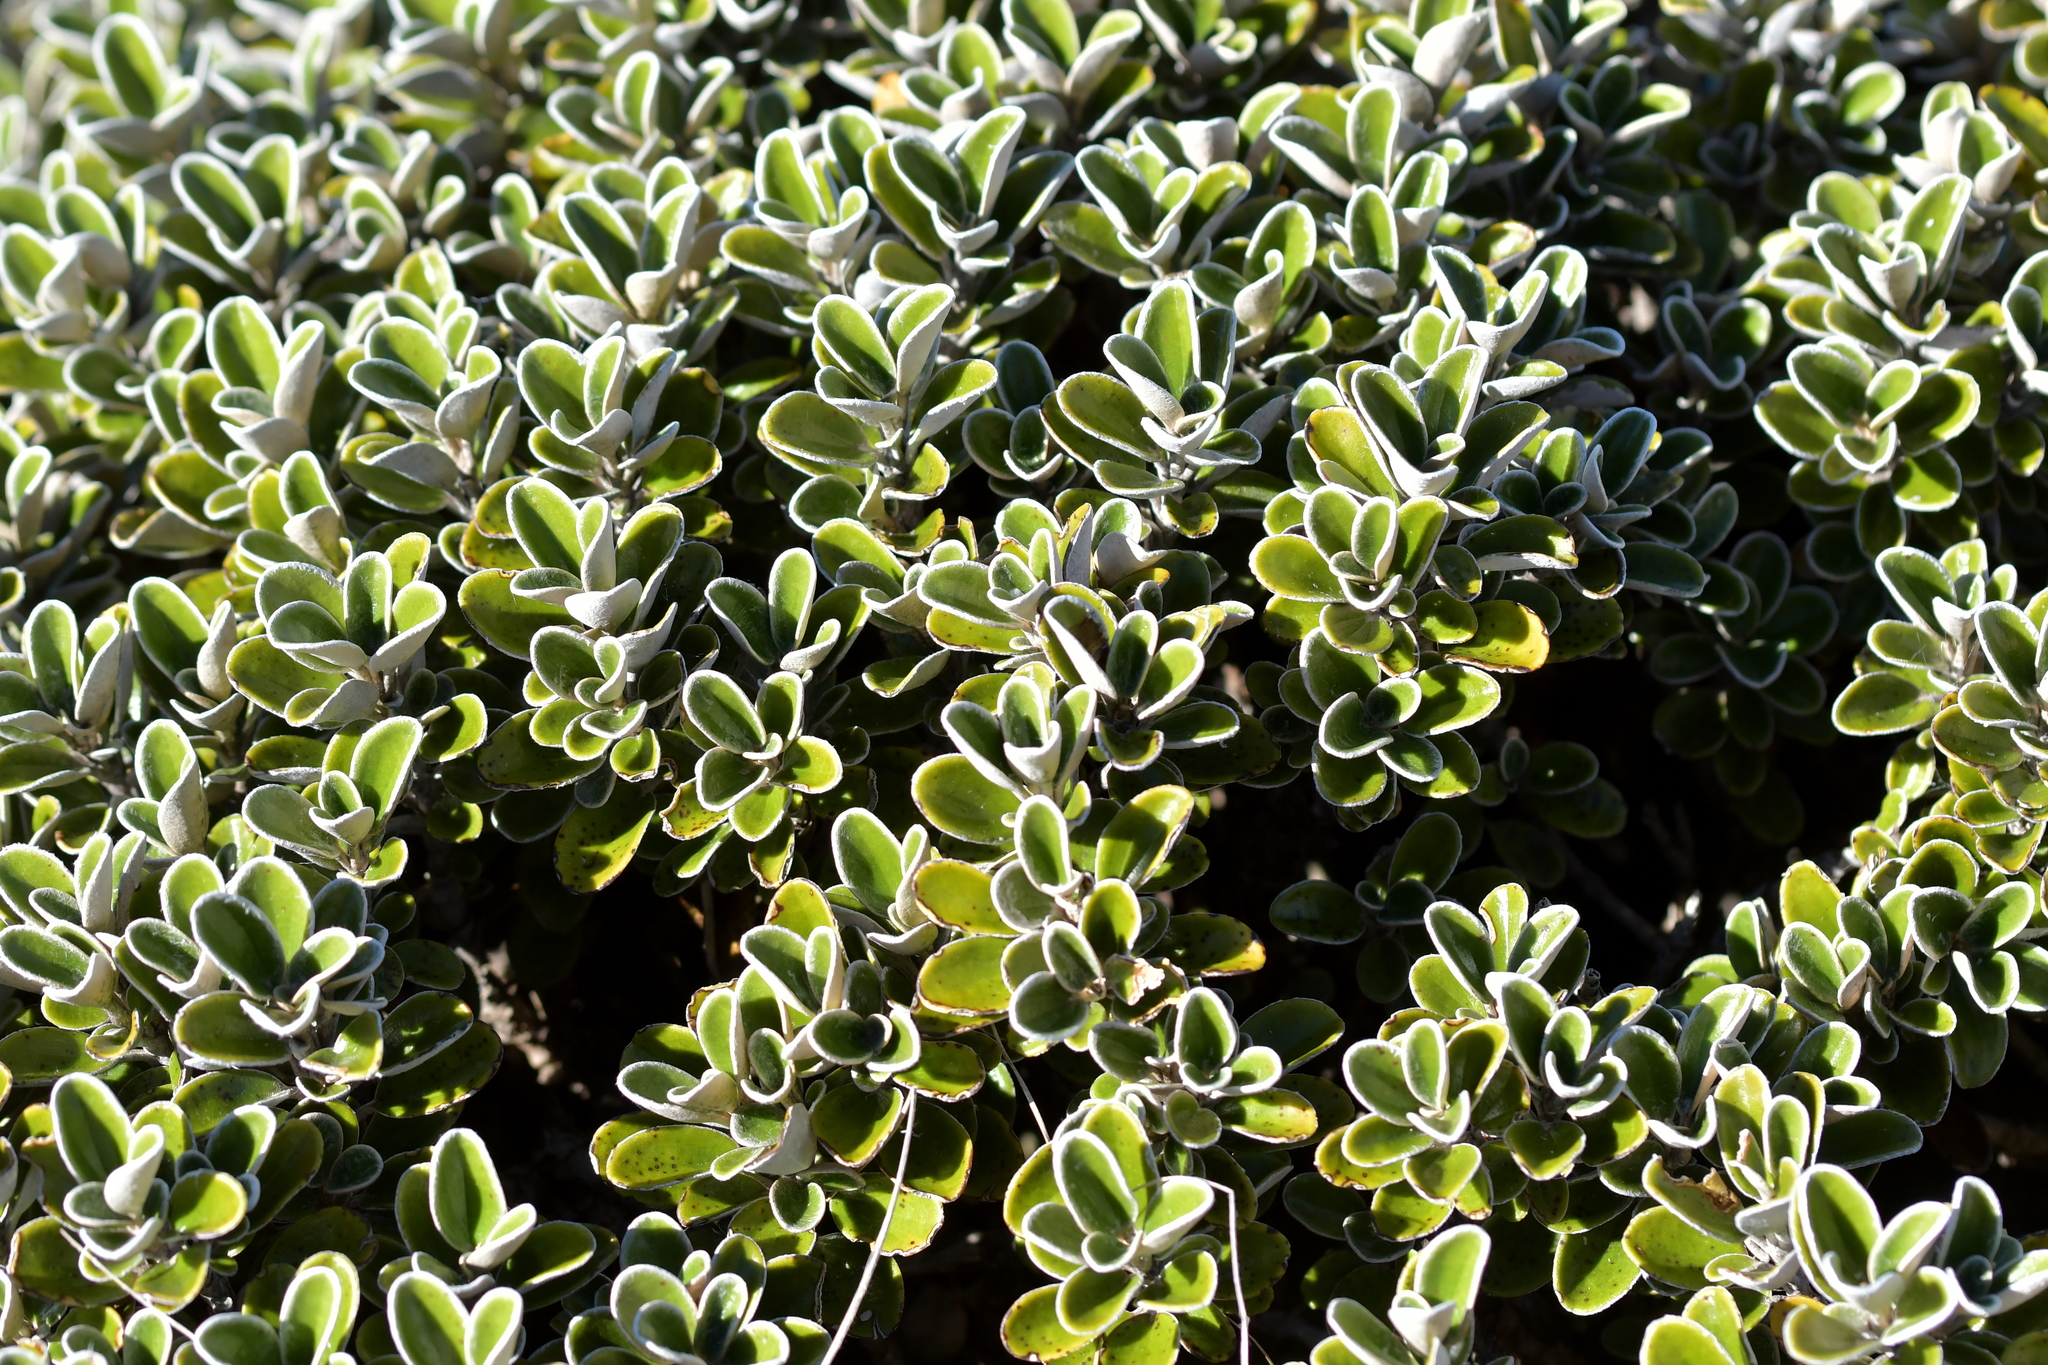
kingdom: Plantae
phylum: Tracheophyta
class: Magnoliopsida
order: Asterales
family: Asteraceae
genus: Brachyglottis
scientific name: Brachyglottis bidwillii
